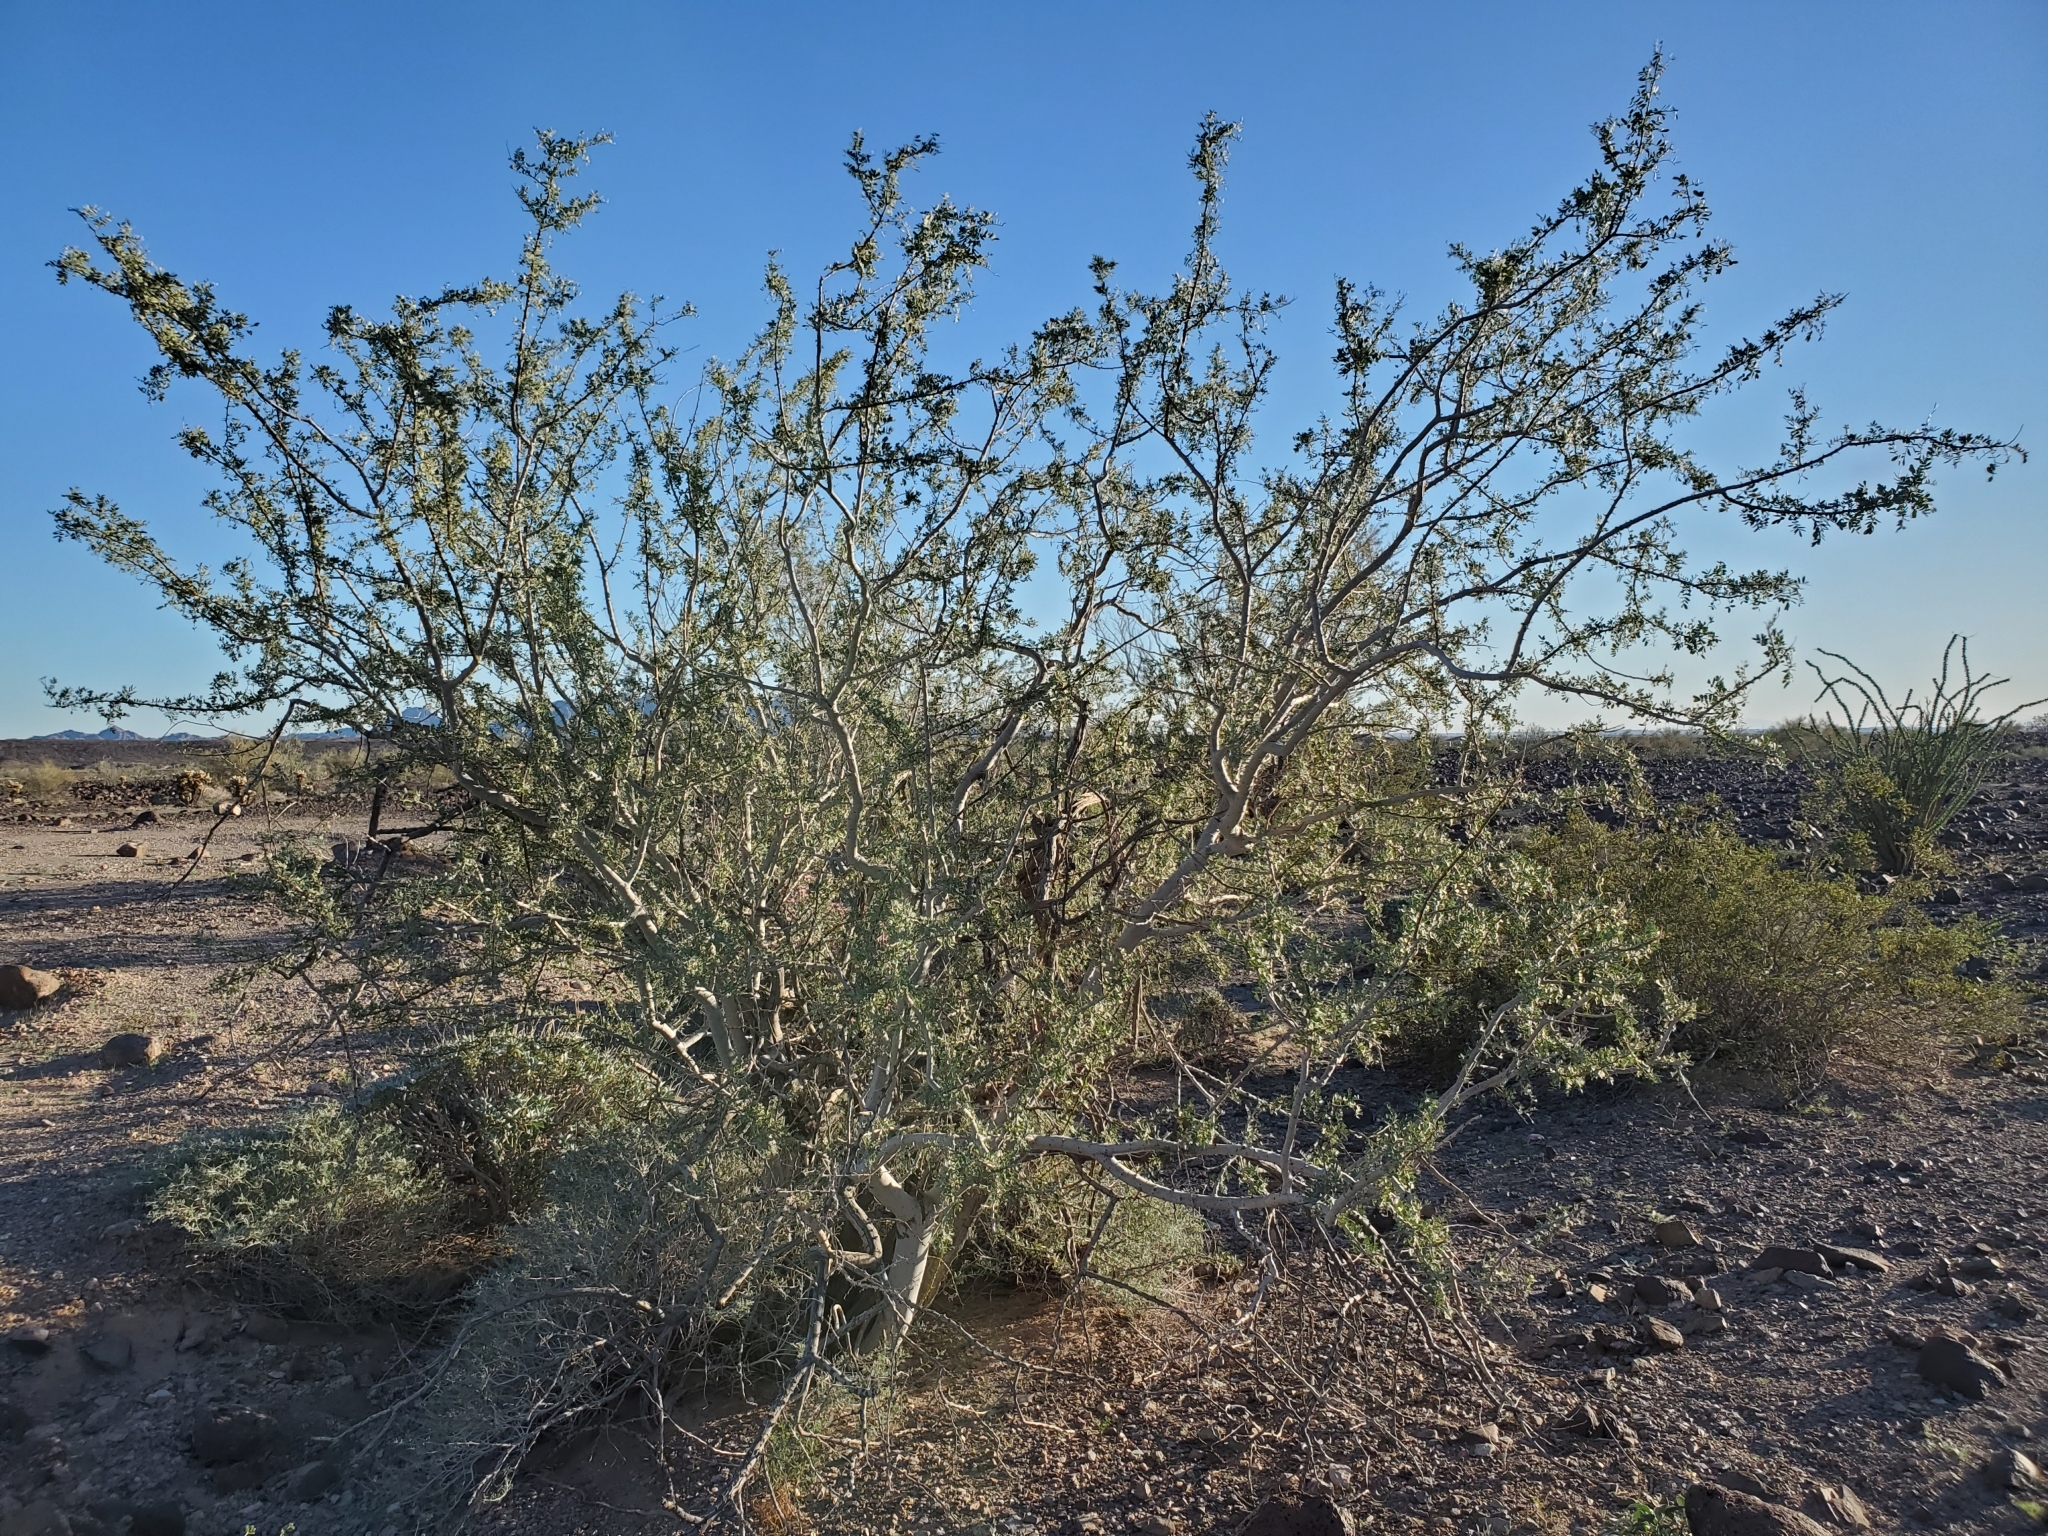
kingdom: Plantae
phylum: Tracheophyta
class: Magnoliopsida
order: Fabales
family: Fabaceae
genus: Olneya
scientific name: Olneya tesota
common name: Desert ironwood
